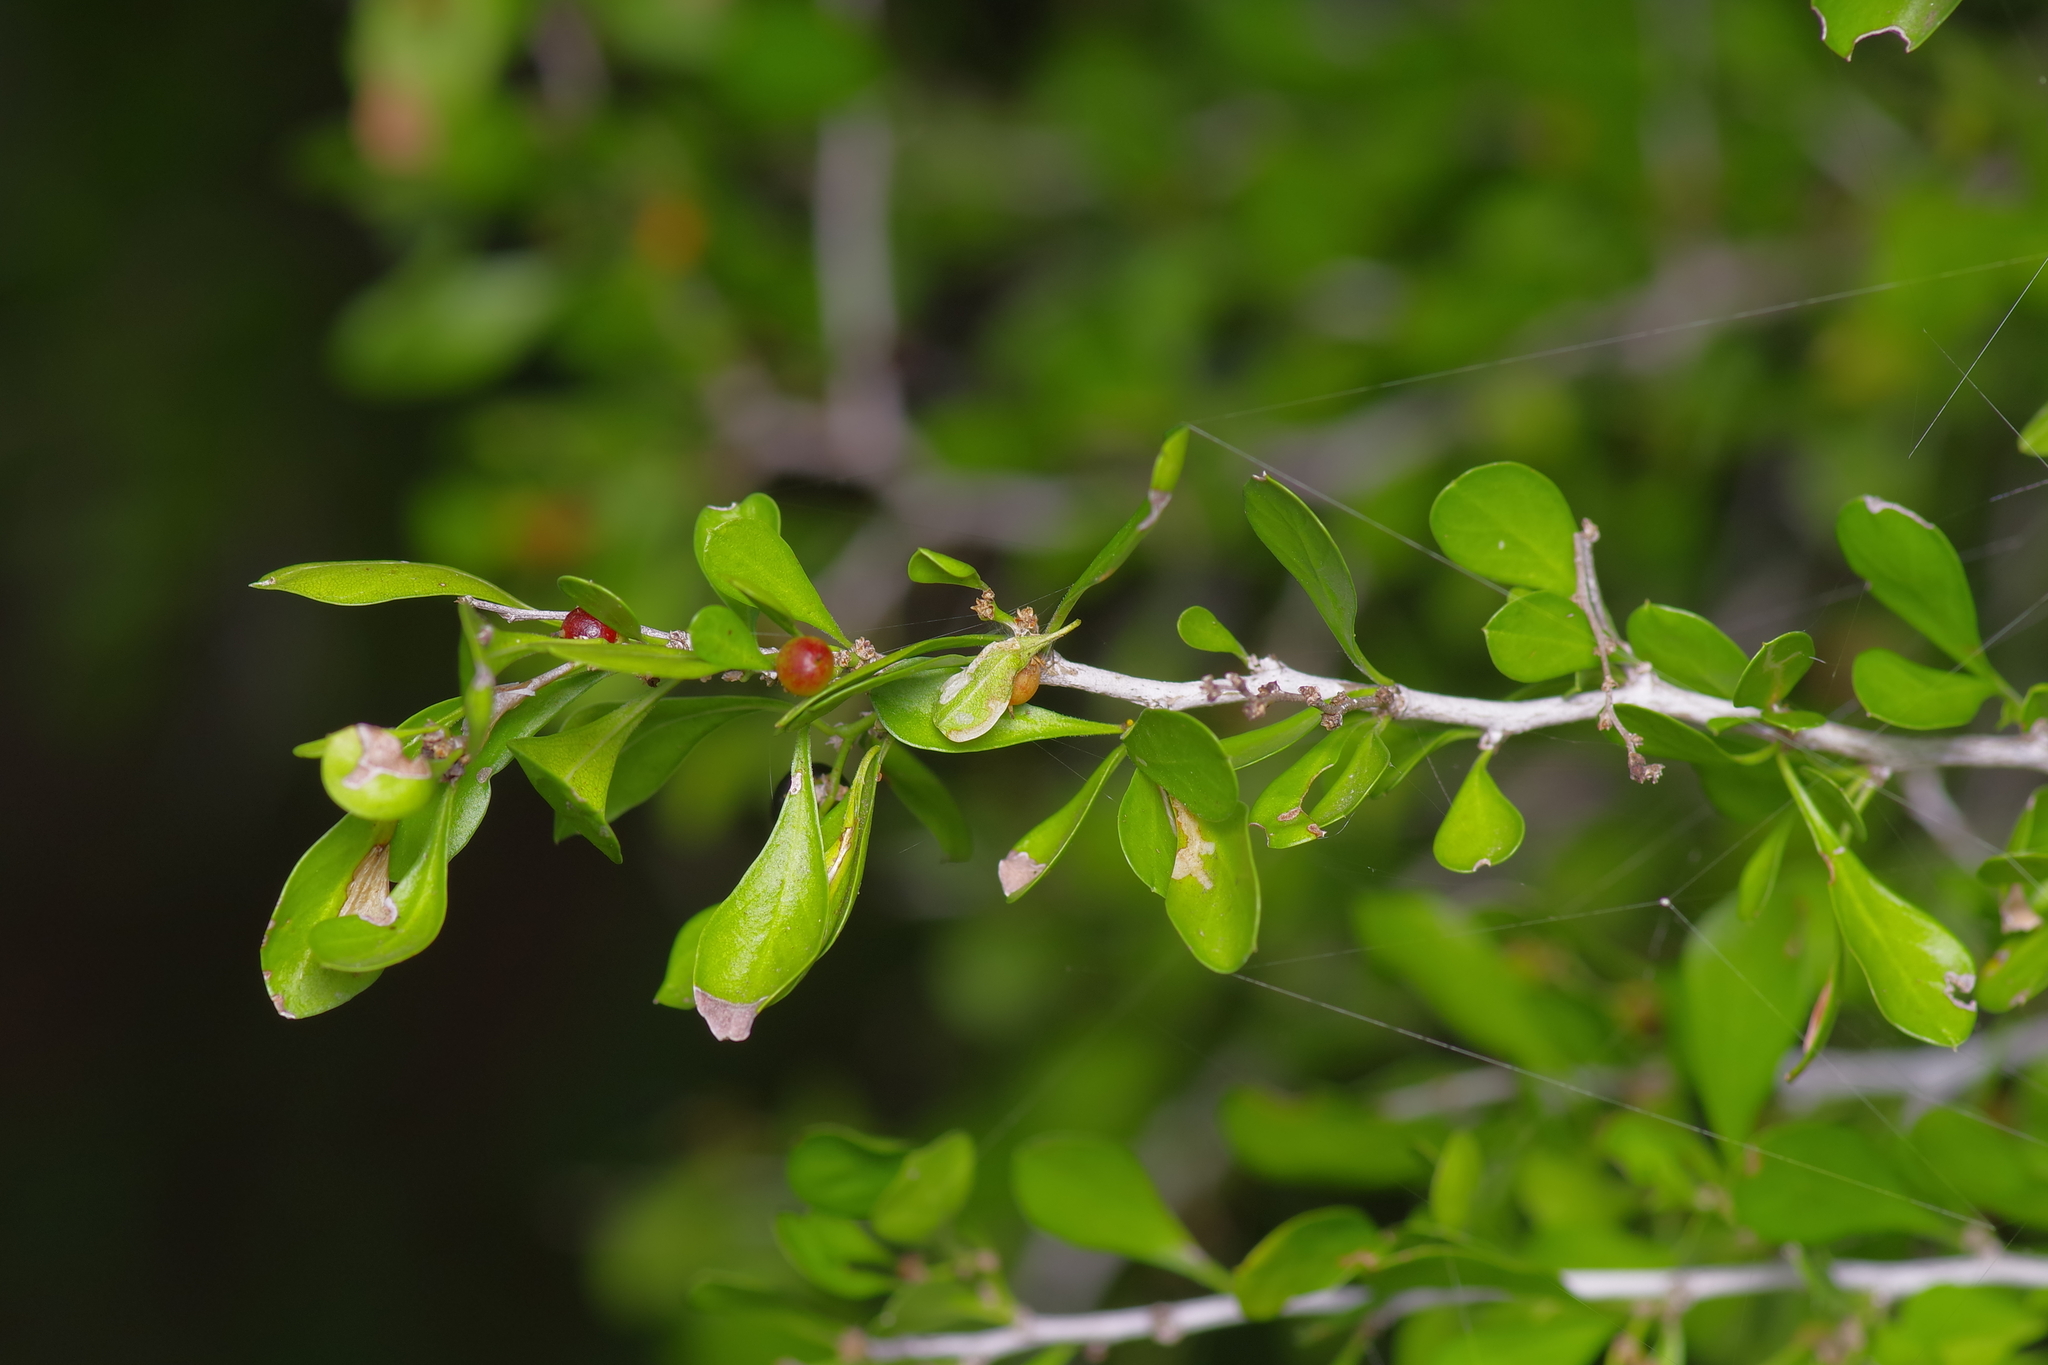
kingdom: Plantae
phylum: Tracheophyta
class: Magnoliopsida
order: Rosales
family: Rhamnaceae
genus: Condalia
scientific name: Condalia hookeri
